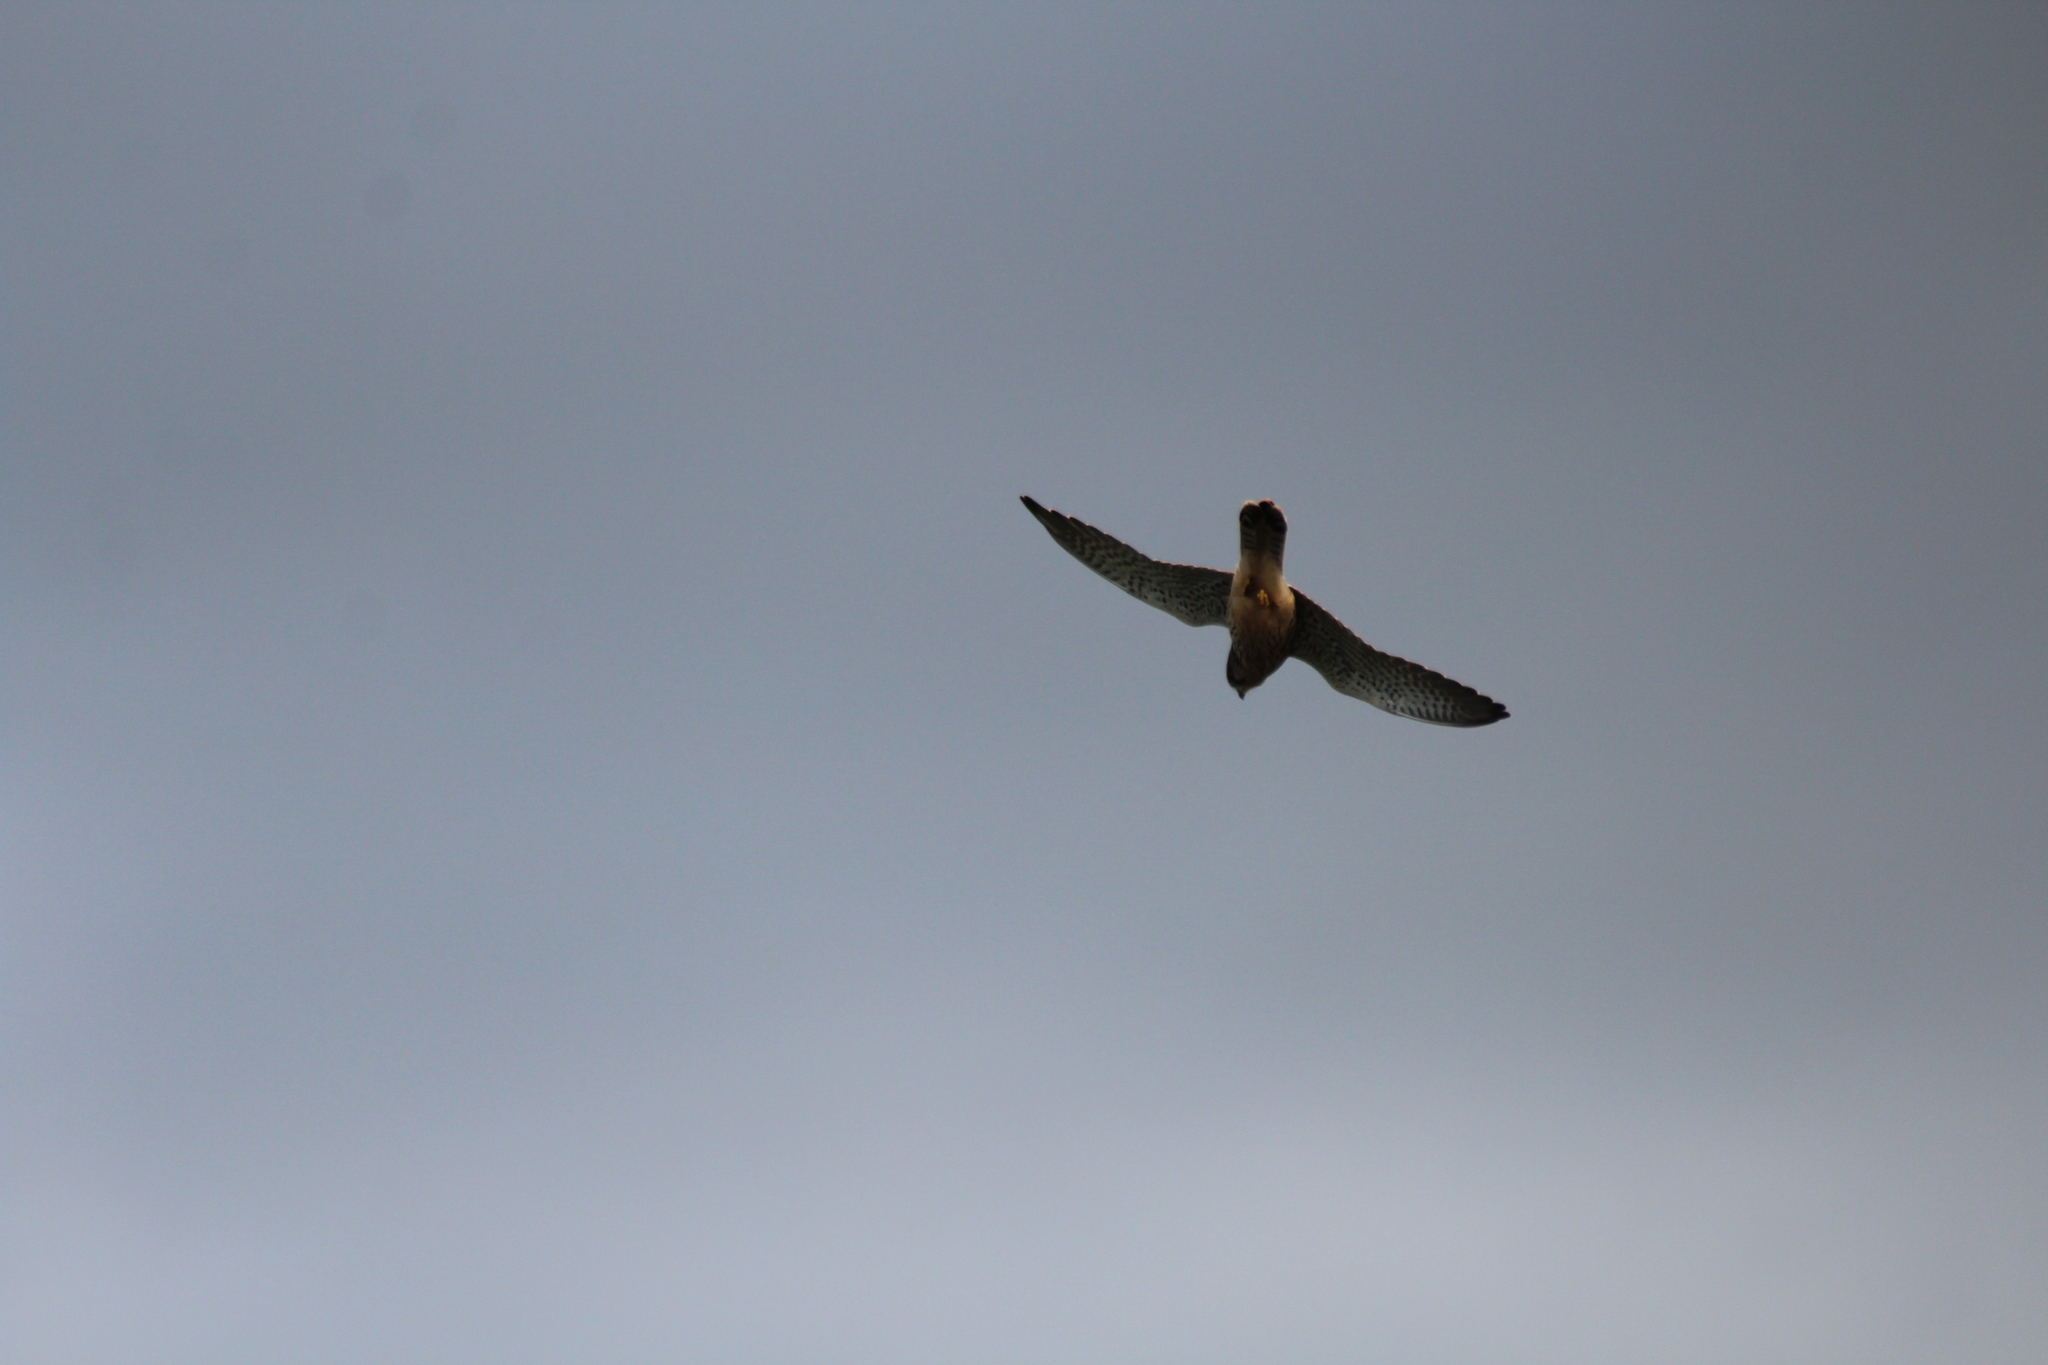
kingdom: Animalia
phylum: Chordata
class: Aves
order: Falconiformes
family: Falconidae
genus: Falco
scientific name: Falco tinnunculus
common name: Common kestrel
